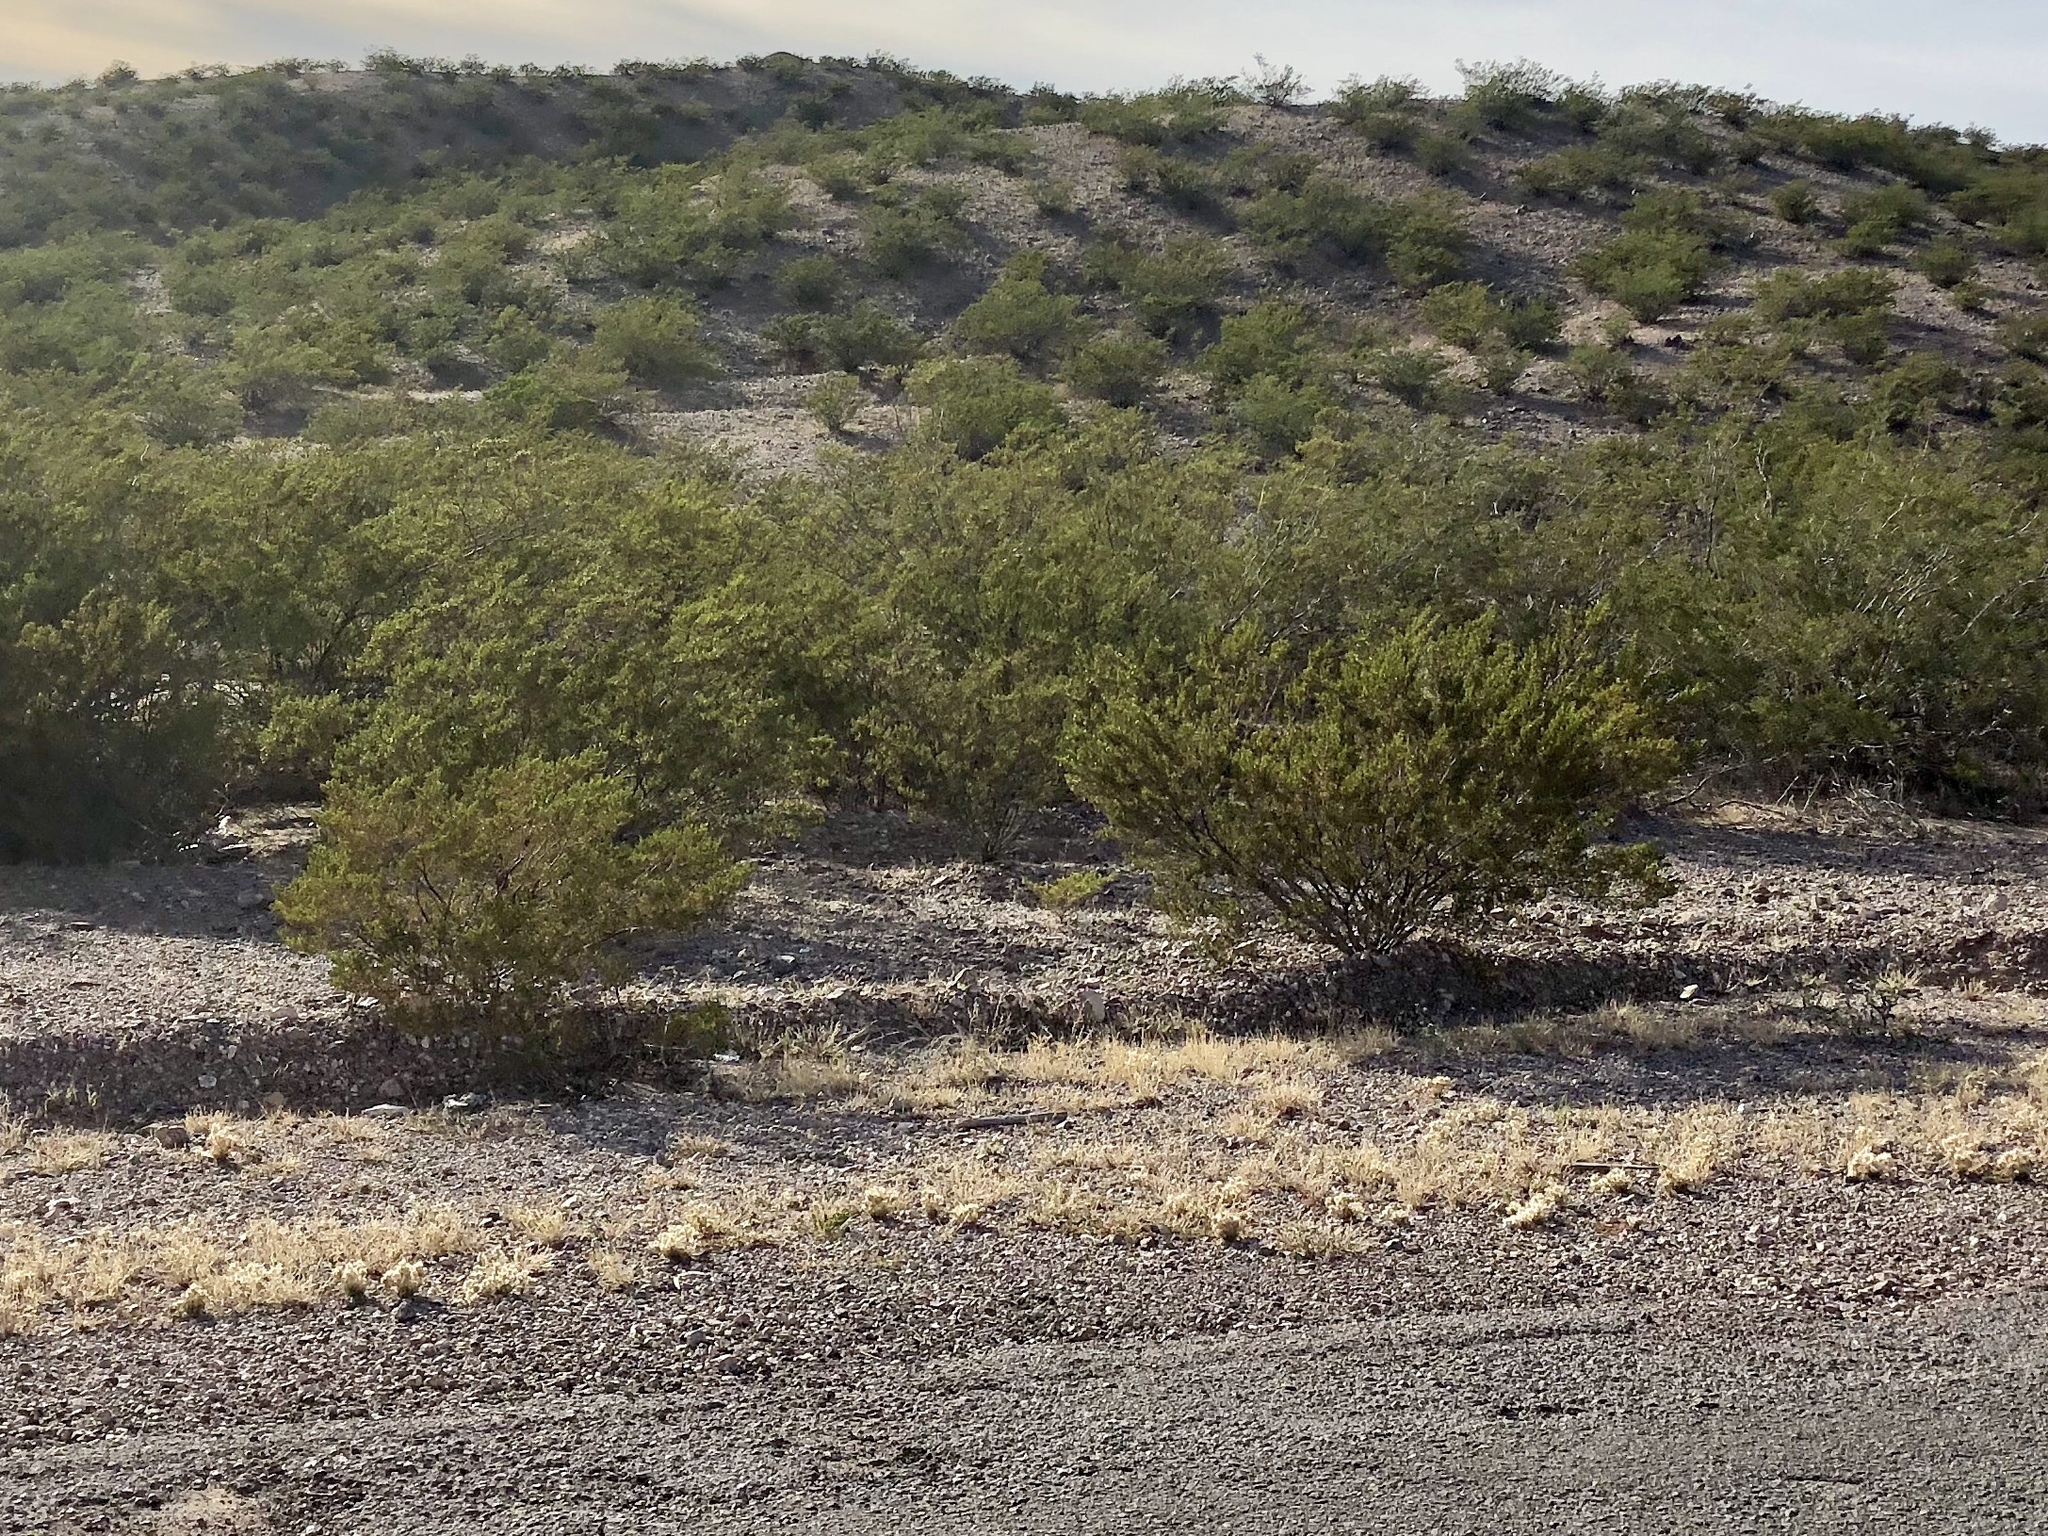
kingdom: Plantae
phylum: Tracheophyta
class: Magnoliopsida
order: Zygophyllales
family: Zygophyllaceae
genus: Larrea
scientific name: Larrea tridentata
